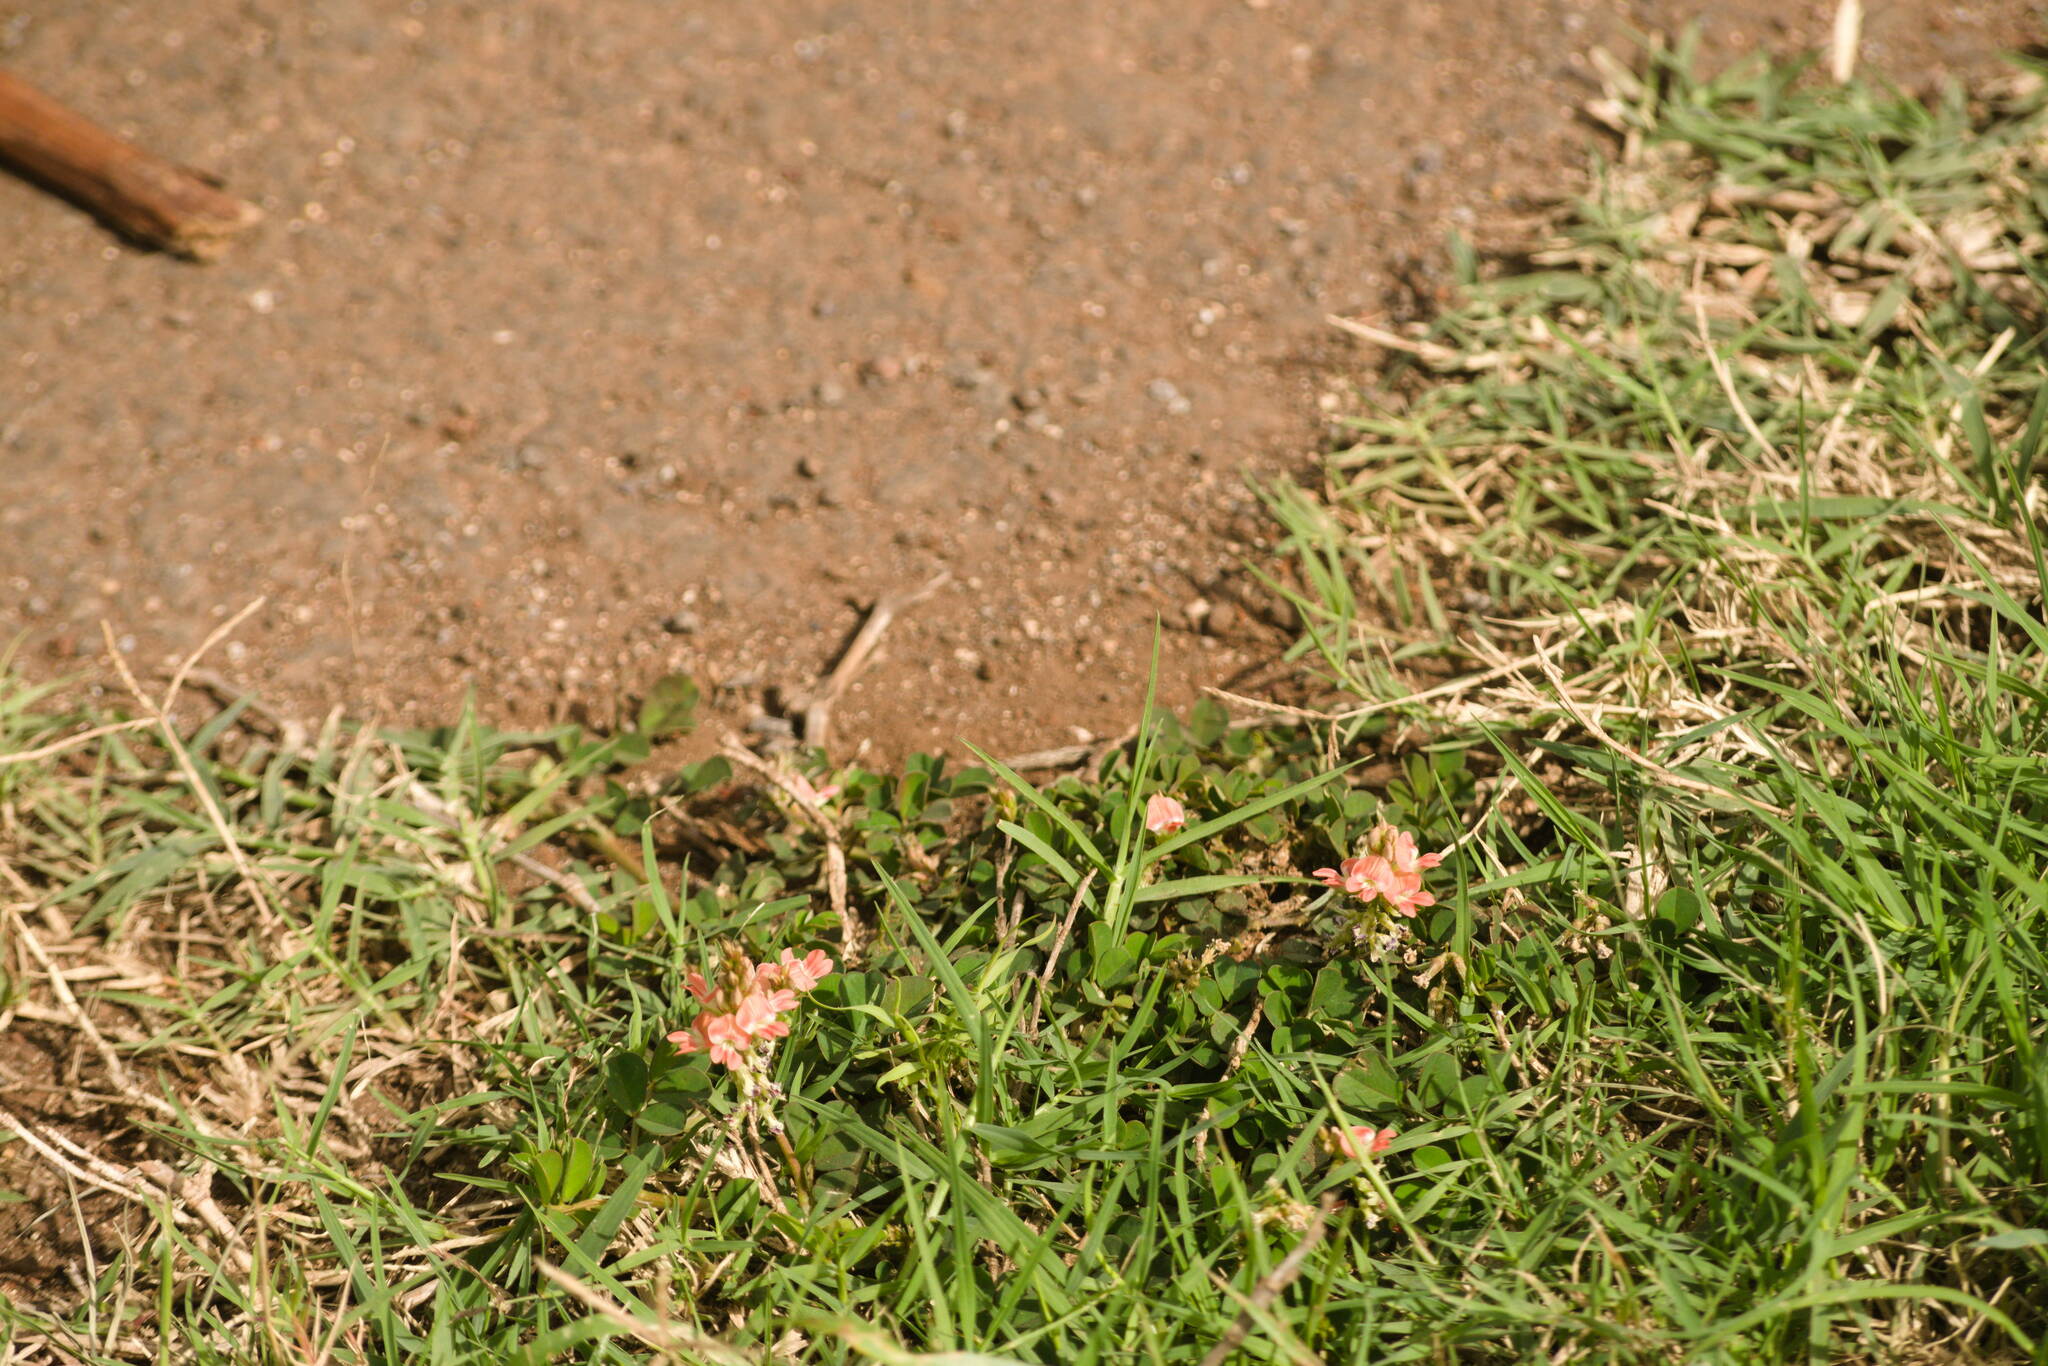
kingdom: Plantae
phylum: Tracheophyta
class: Magnoliopsida
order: Fabales
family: Fabaceae
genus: Indigofera
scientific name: Indigofera spicata
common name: Creeping indigo
